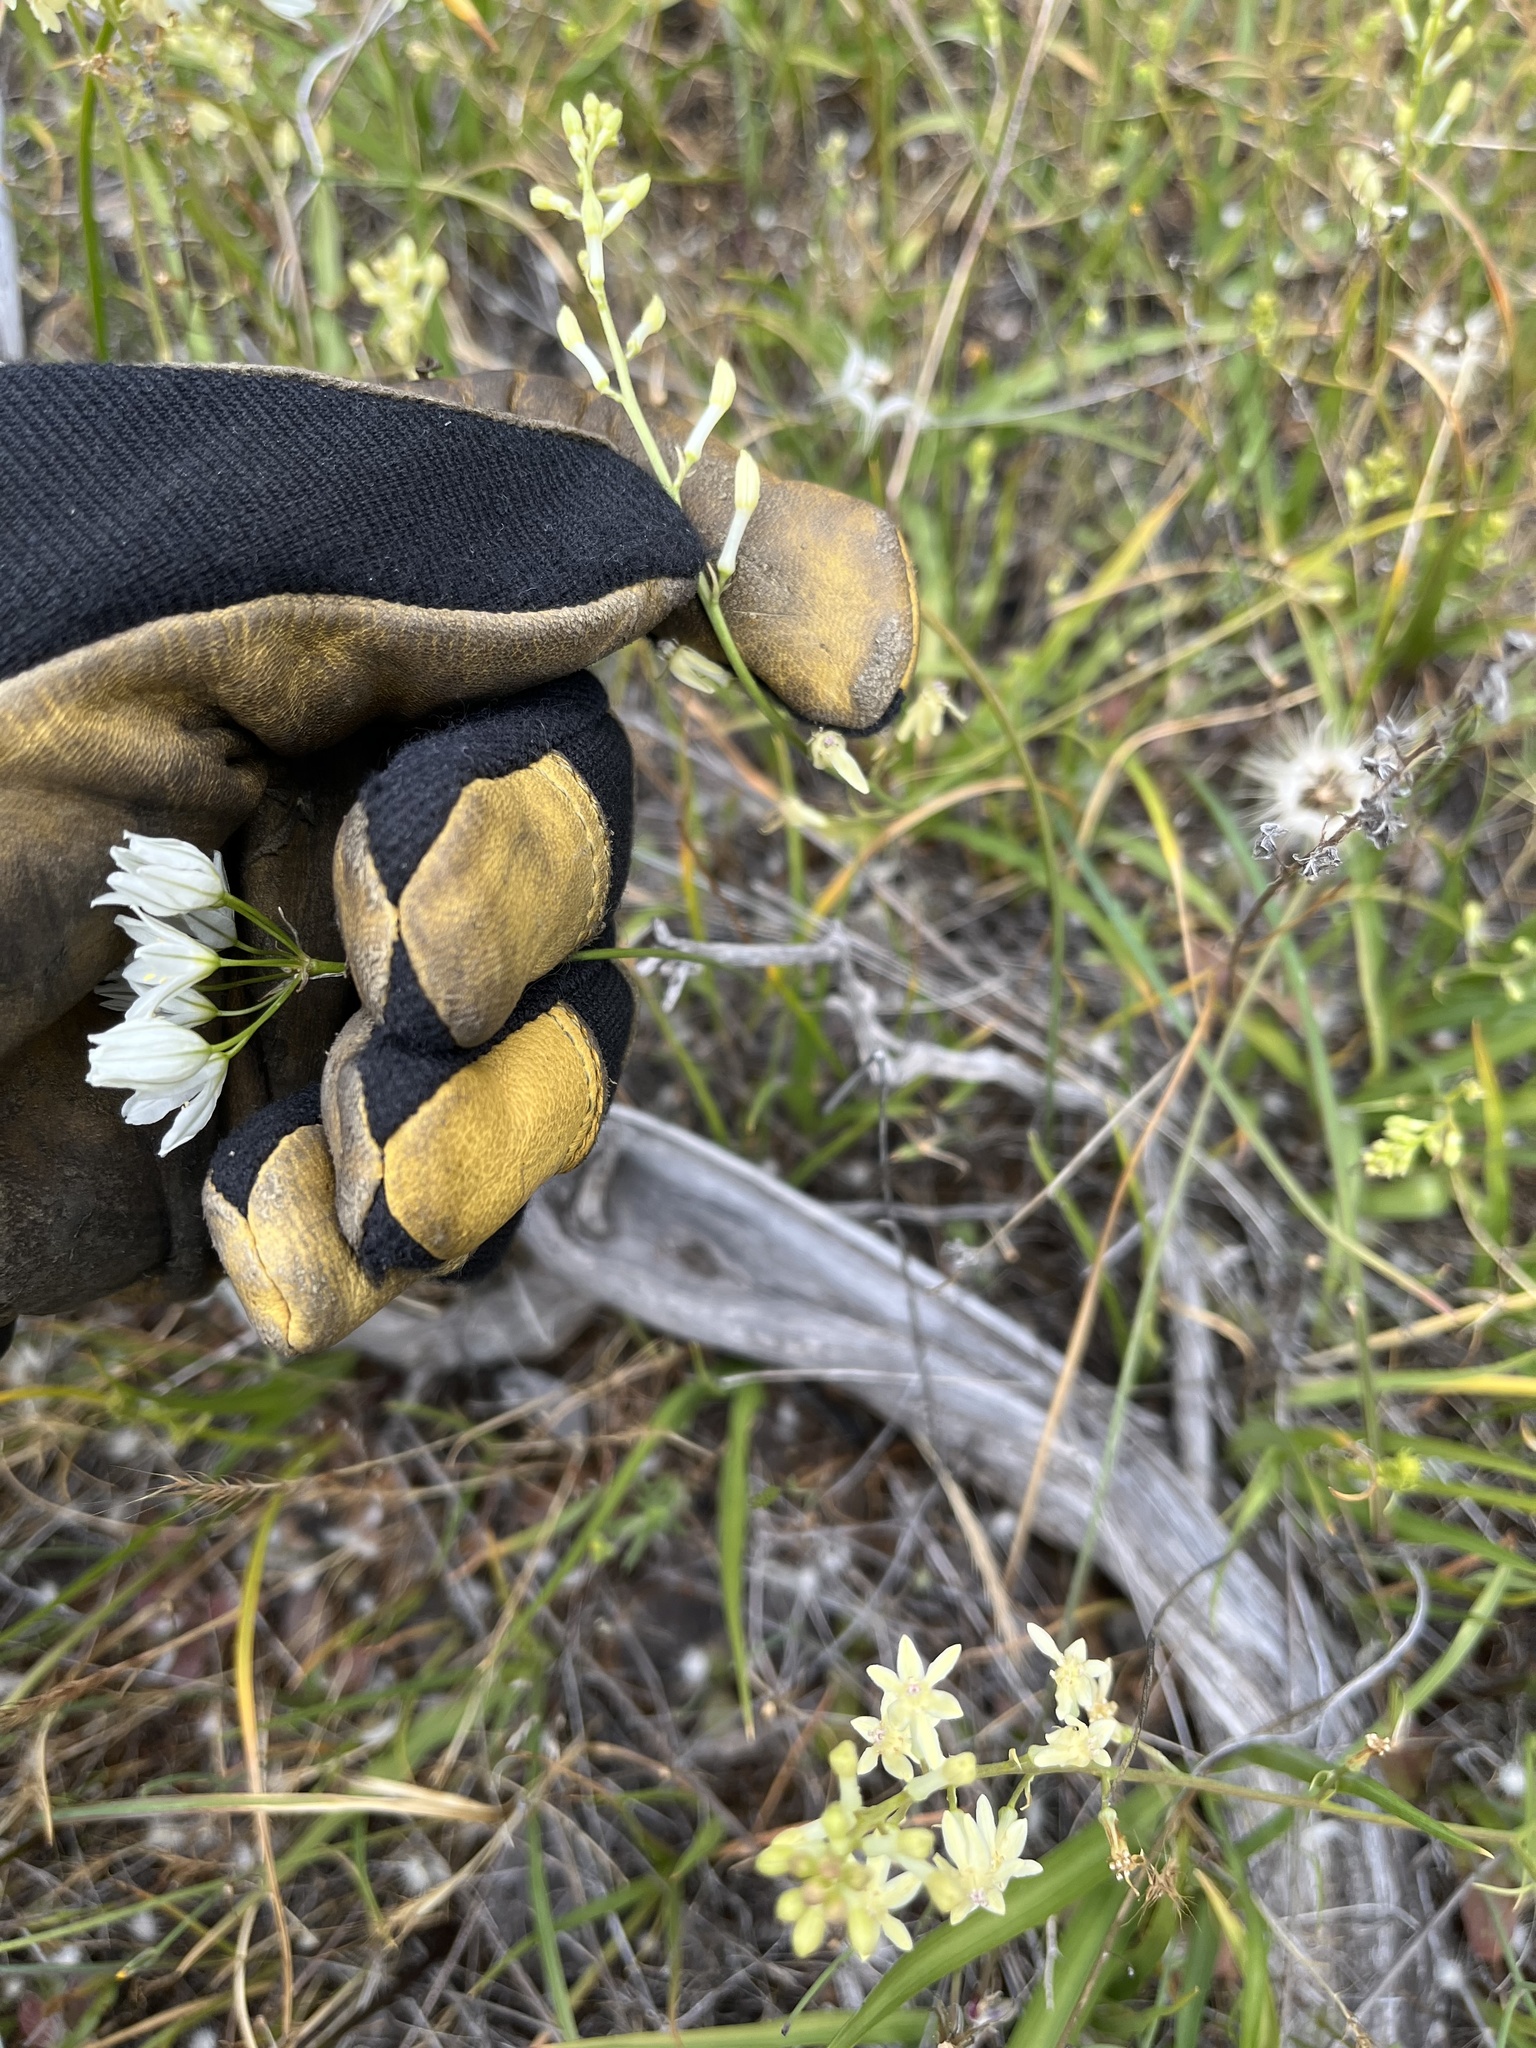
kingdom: Plantae
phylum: Tracheophyta
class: Liliopsida
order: Asparagales
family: Asparagaceae
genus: Triteleia
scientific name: Triteleia hyacinthina
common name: White brodiaea
